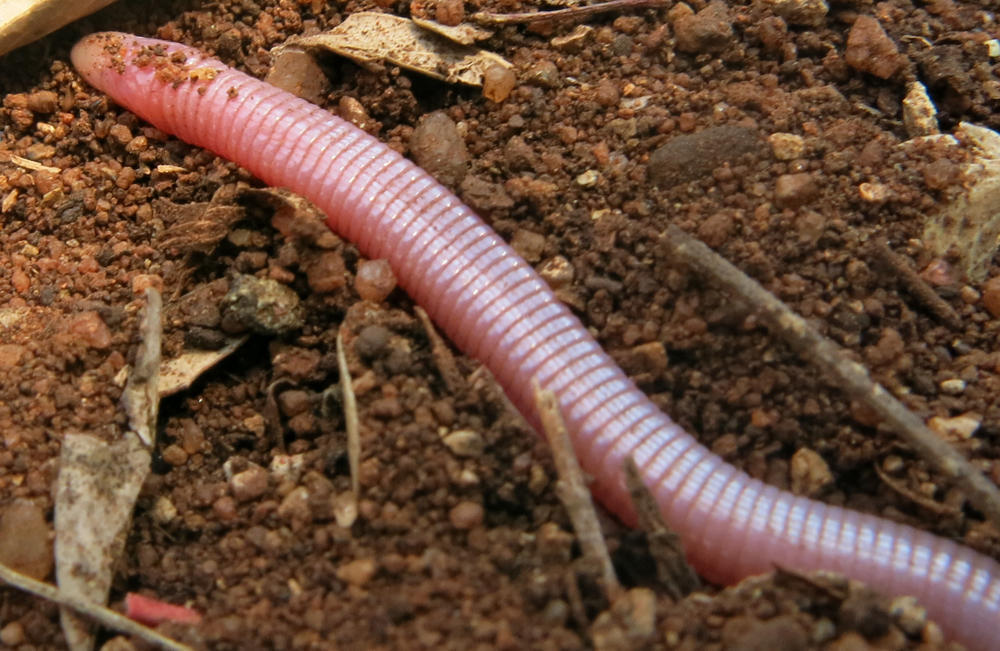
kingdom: Animalia
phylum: Chordata
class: Squamata
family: Amphisbaenidae
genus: Chirindia
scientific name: Chirindia langi
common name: Lang's worm lizard
